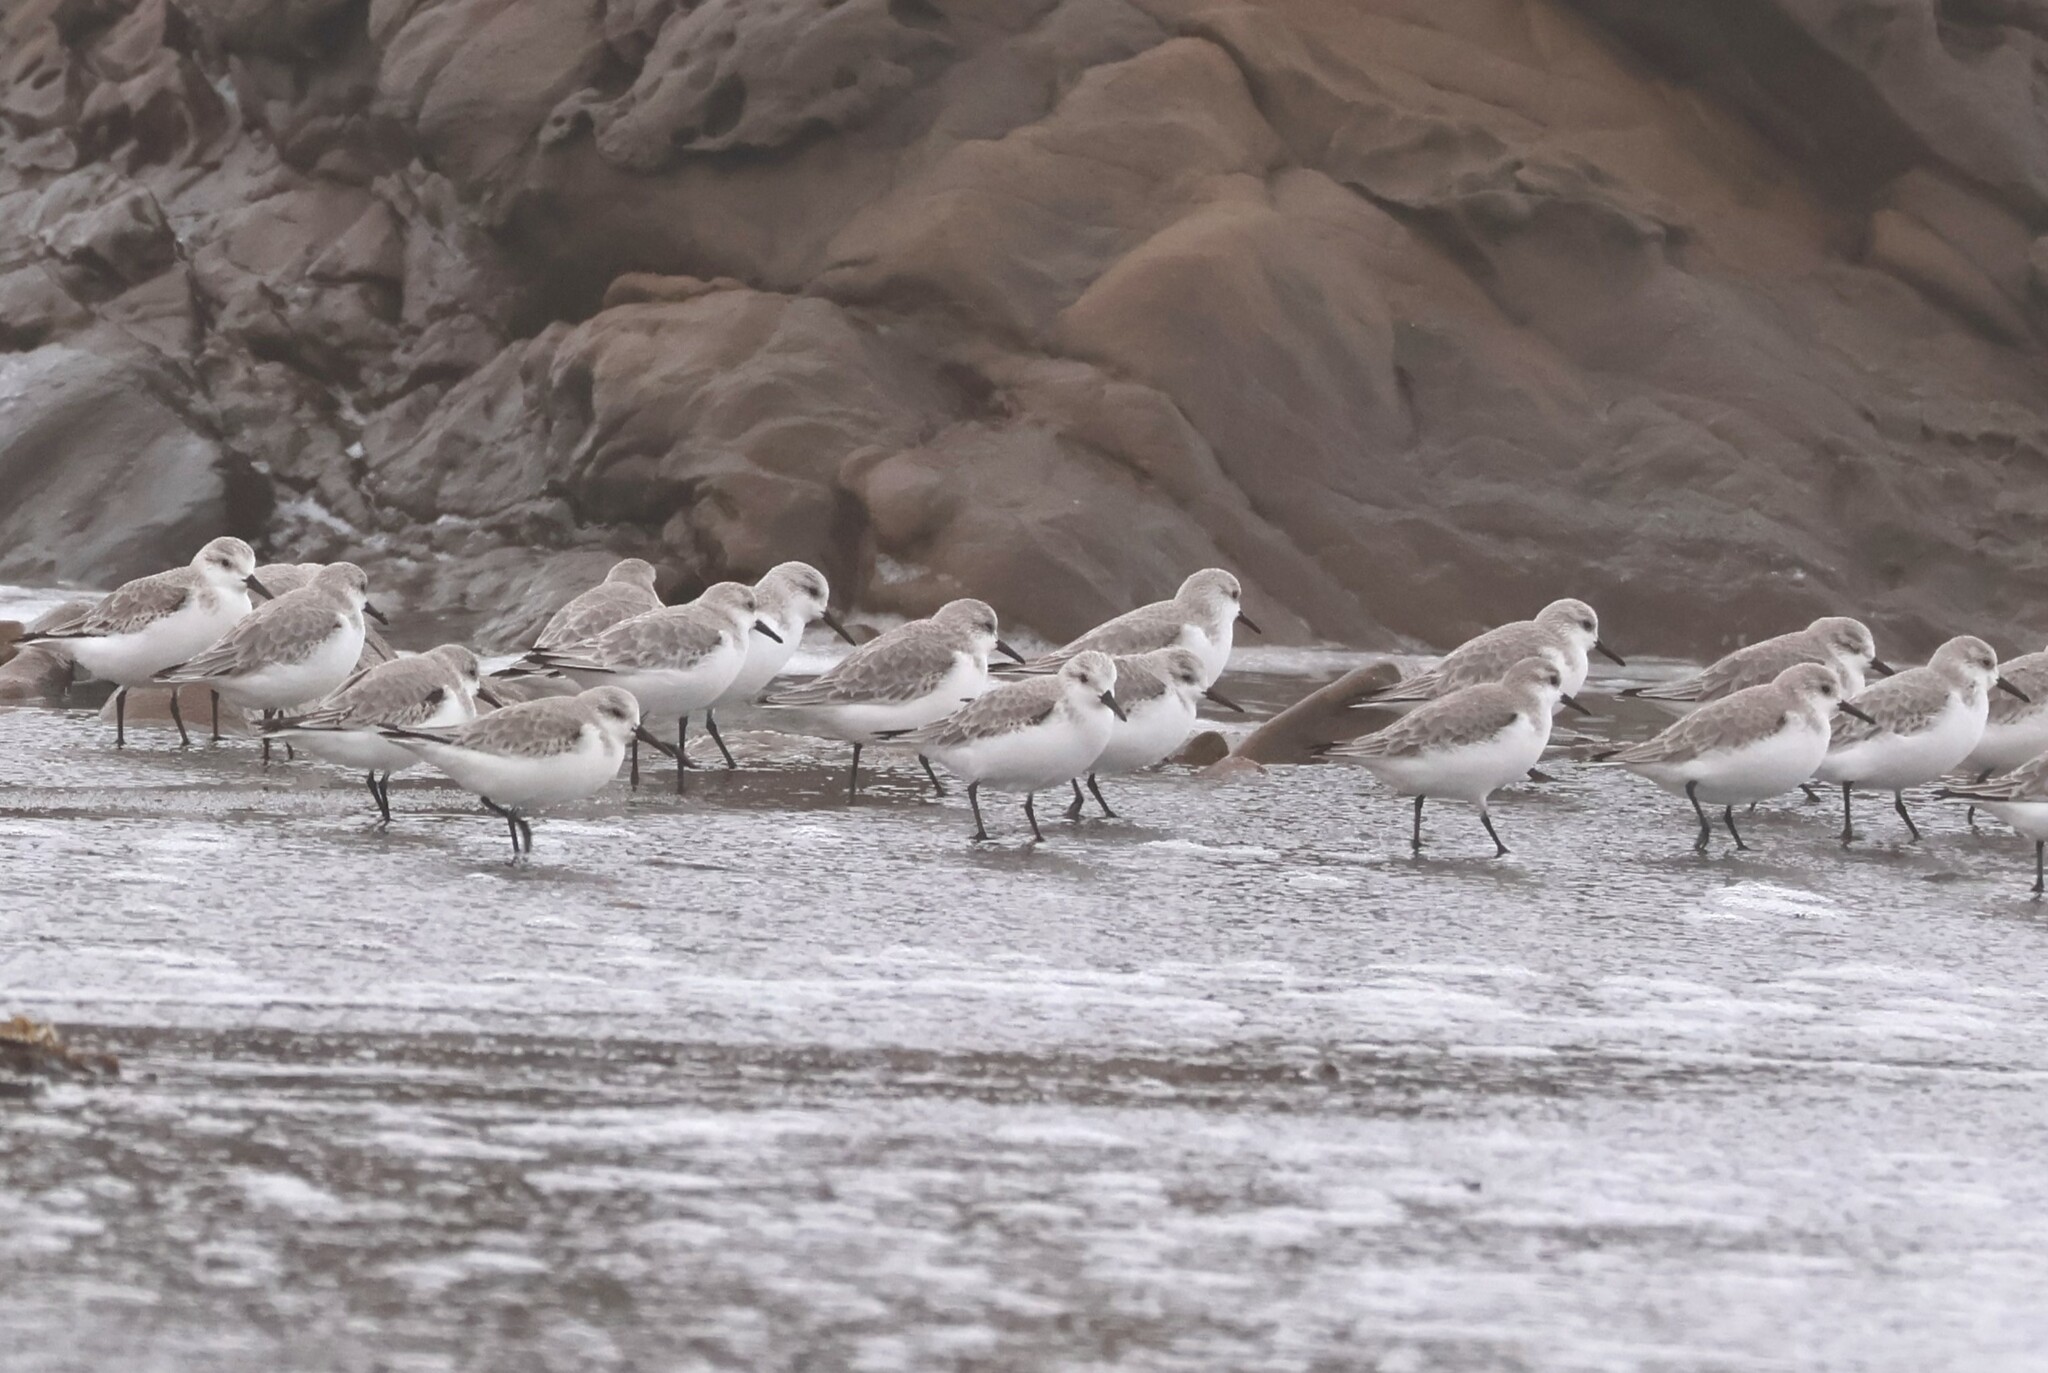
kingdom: Animalia
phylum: Chordata
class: Aves
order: Charadriiformes
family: Scolopacidae
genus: Calidris
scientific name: Calidris alba
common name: Sanderling
